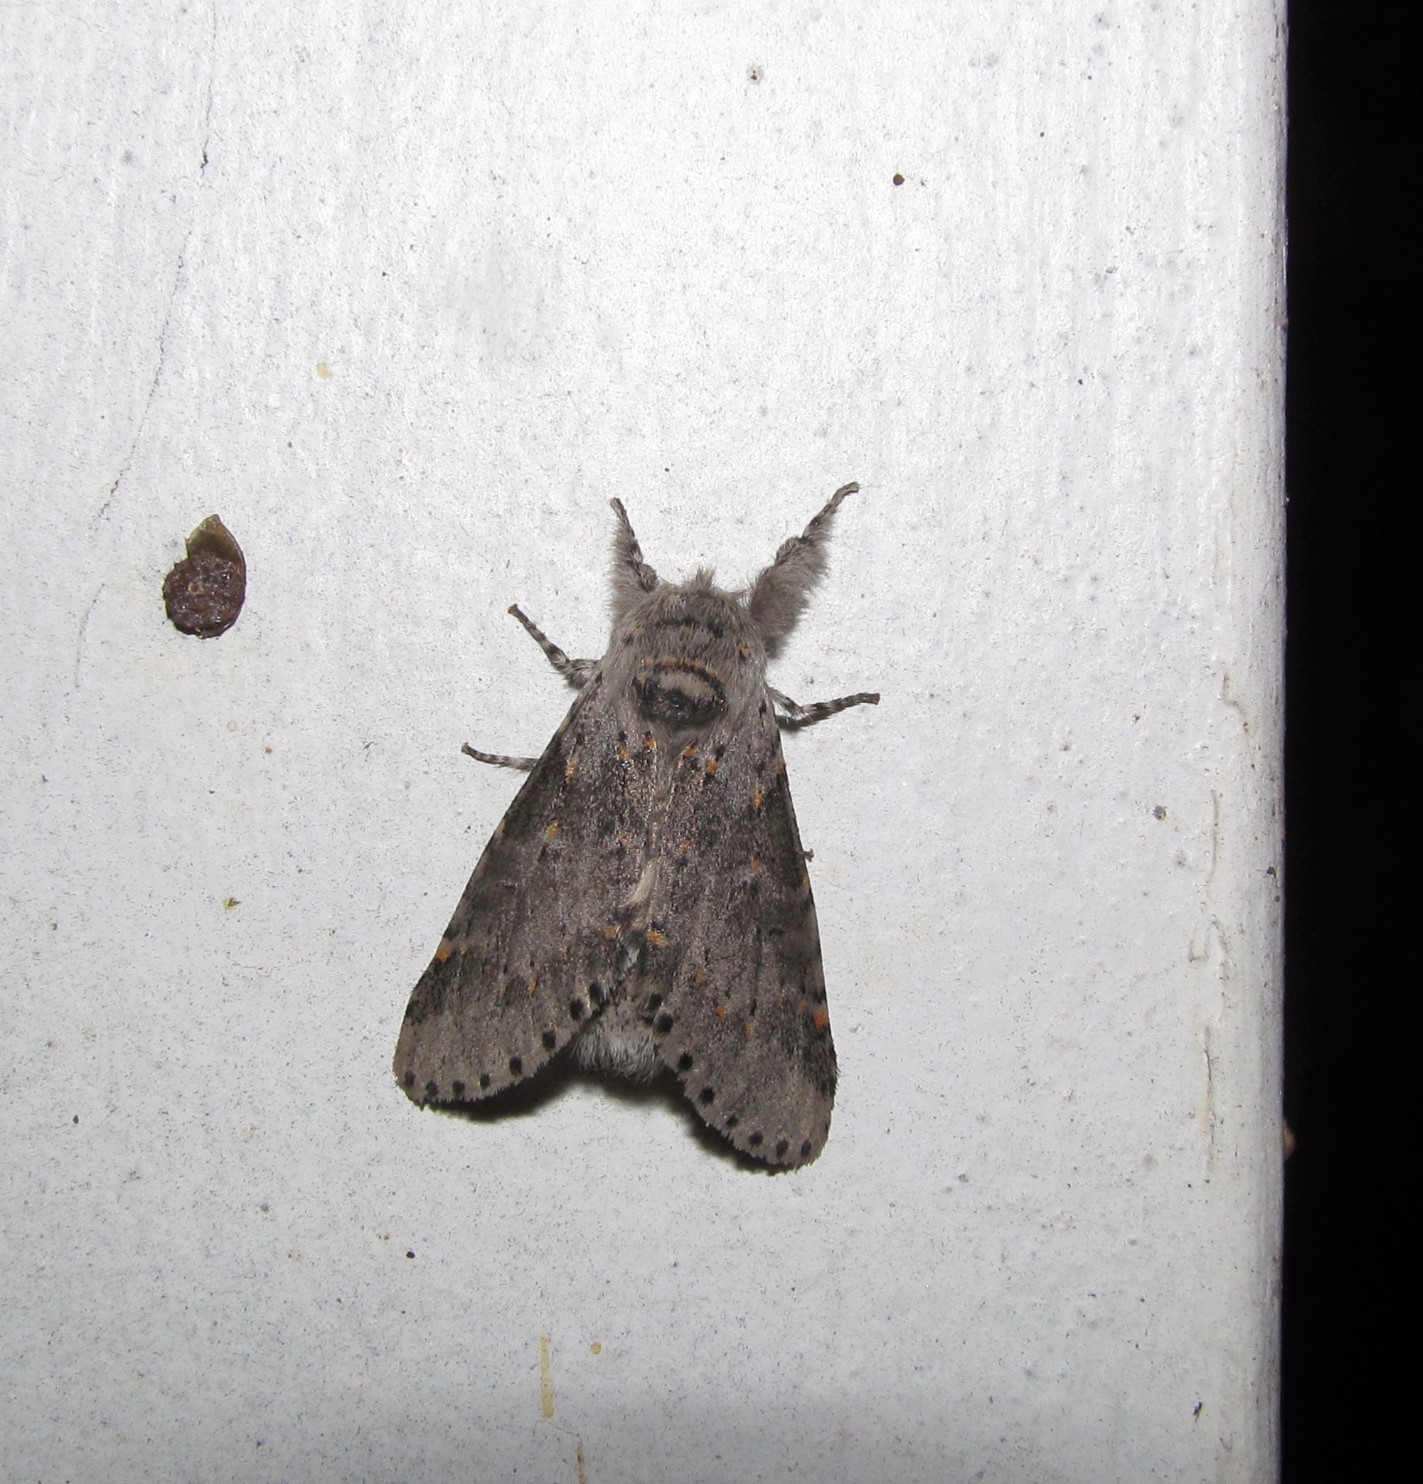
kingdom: Animalia
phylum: Arthropoda
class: Insecta
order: Lepidoptera
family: Notodontidae
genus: Furcula
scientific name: Furcula cinerea
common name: Gray furcula
